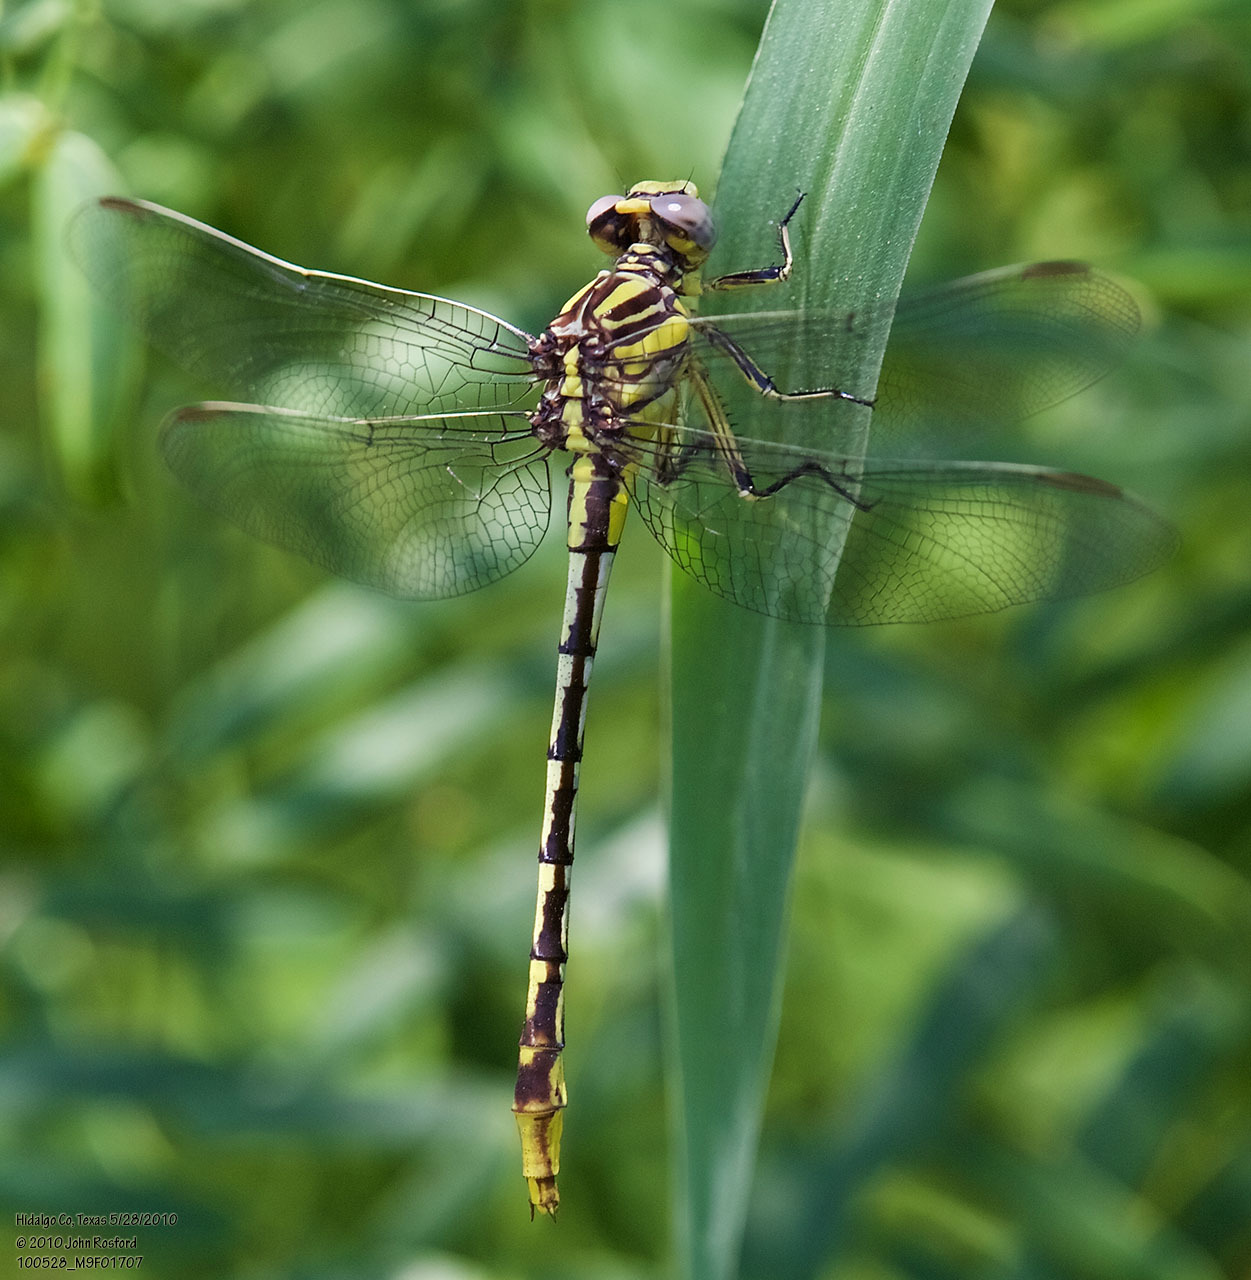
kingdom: Animalia
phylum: Arthropoda
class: Insecta
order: Odonata
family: Gomphidae
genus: Phanogomphus
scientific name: Phanogomphus militaris
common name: Sulphur-tipped clubtail
